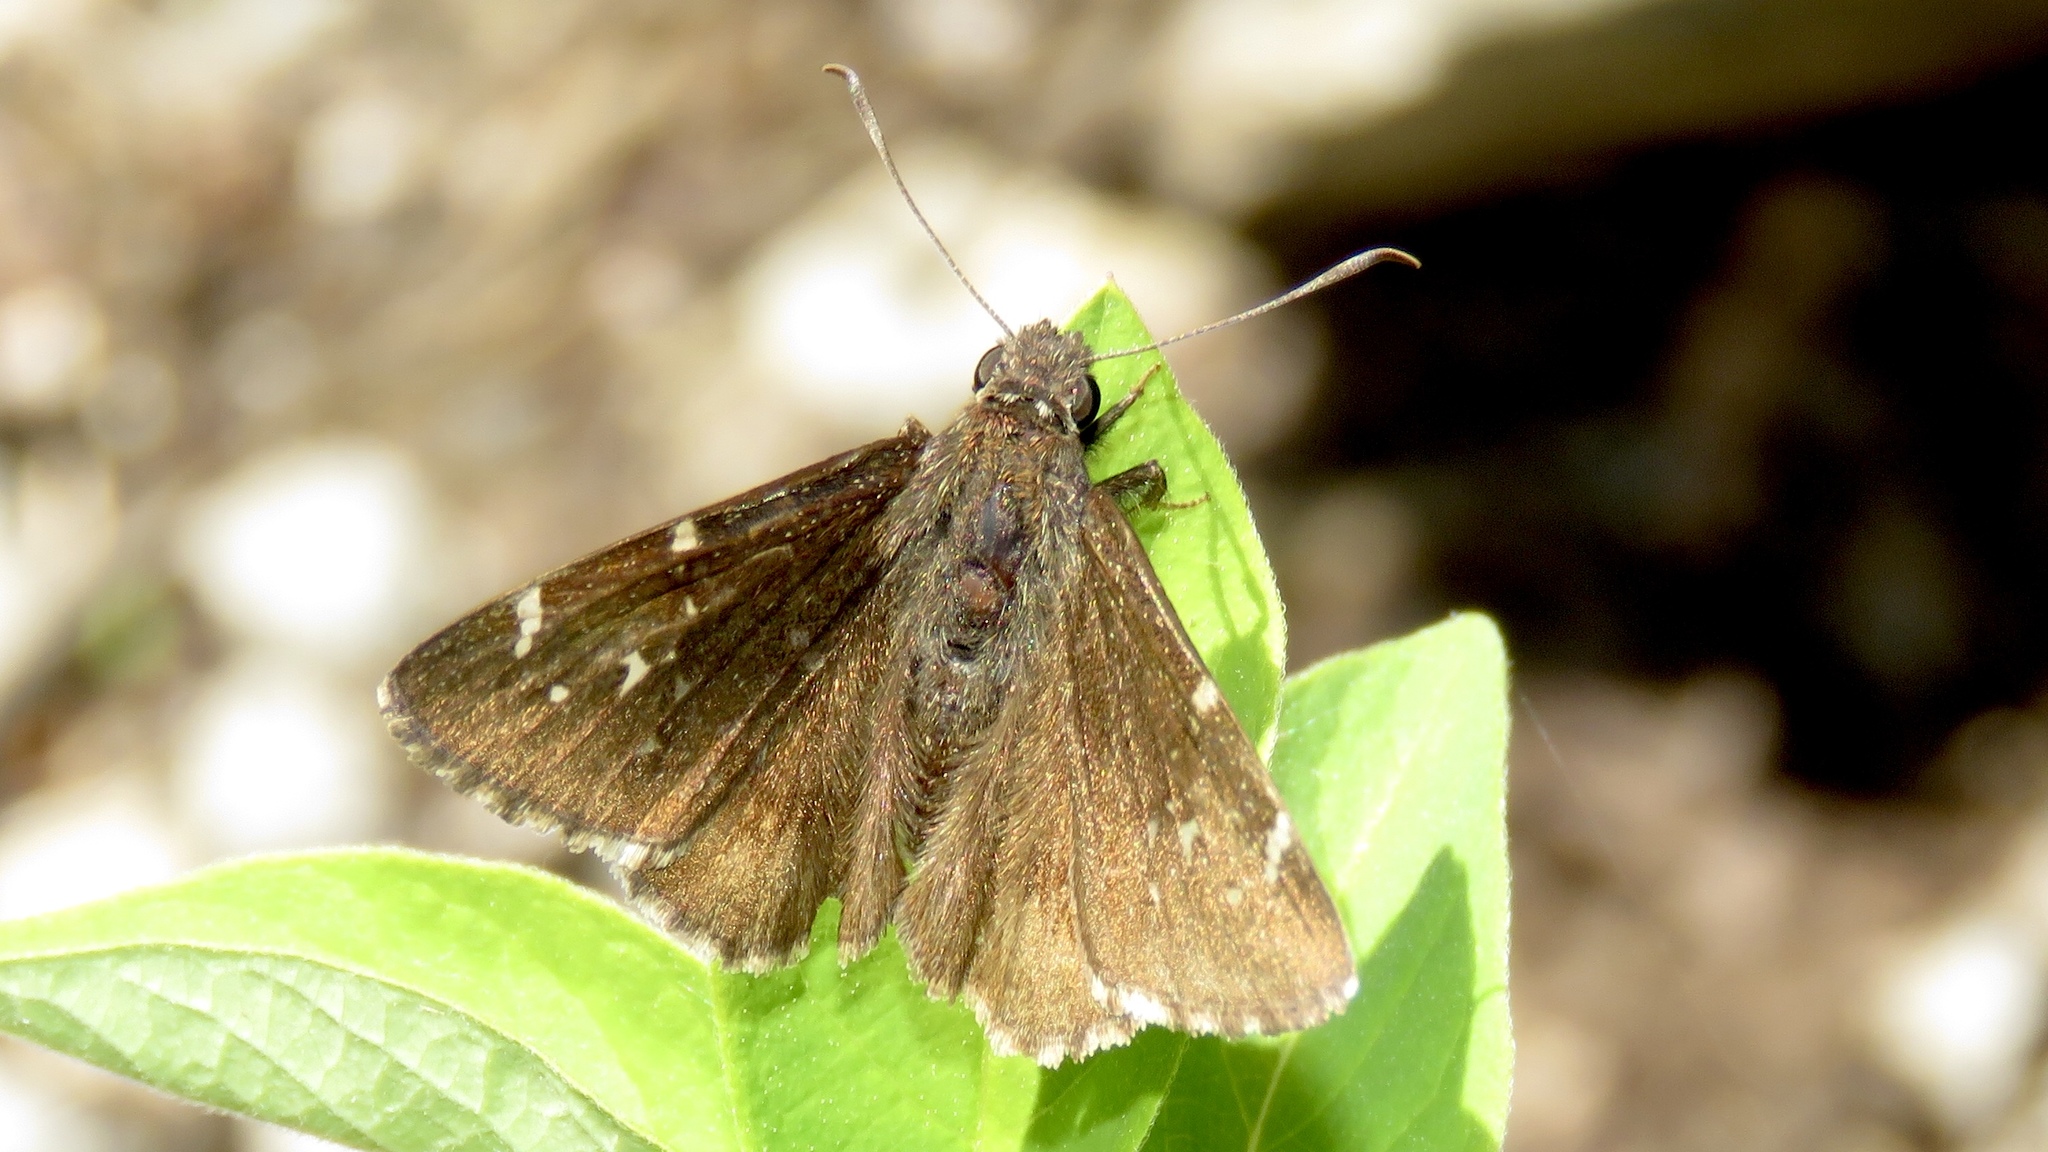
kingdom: Animalia
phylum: Arthropoda
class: Insecta
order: Lepidoptera
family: Hesperiidae
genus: Thorybes
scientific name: Thorybes pylades
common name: Northern cloudywing
